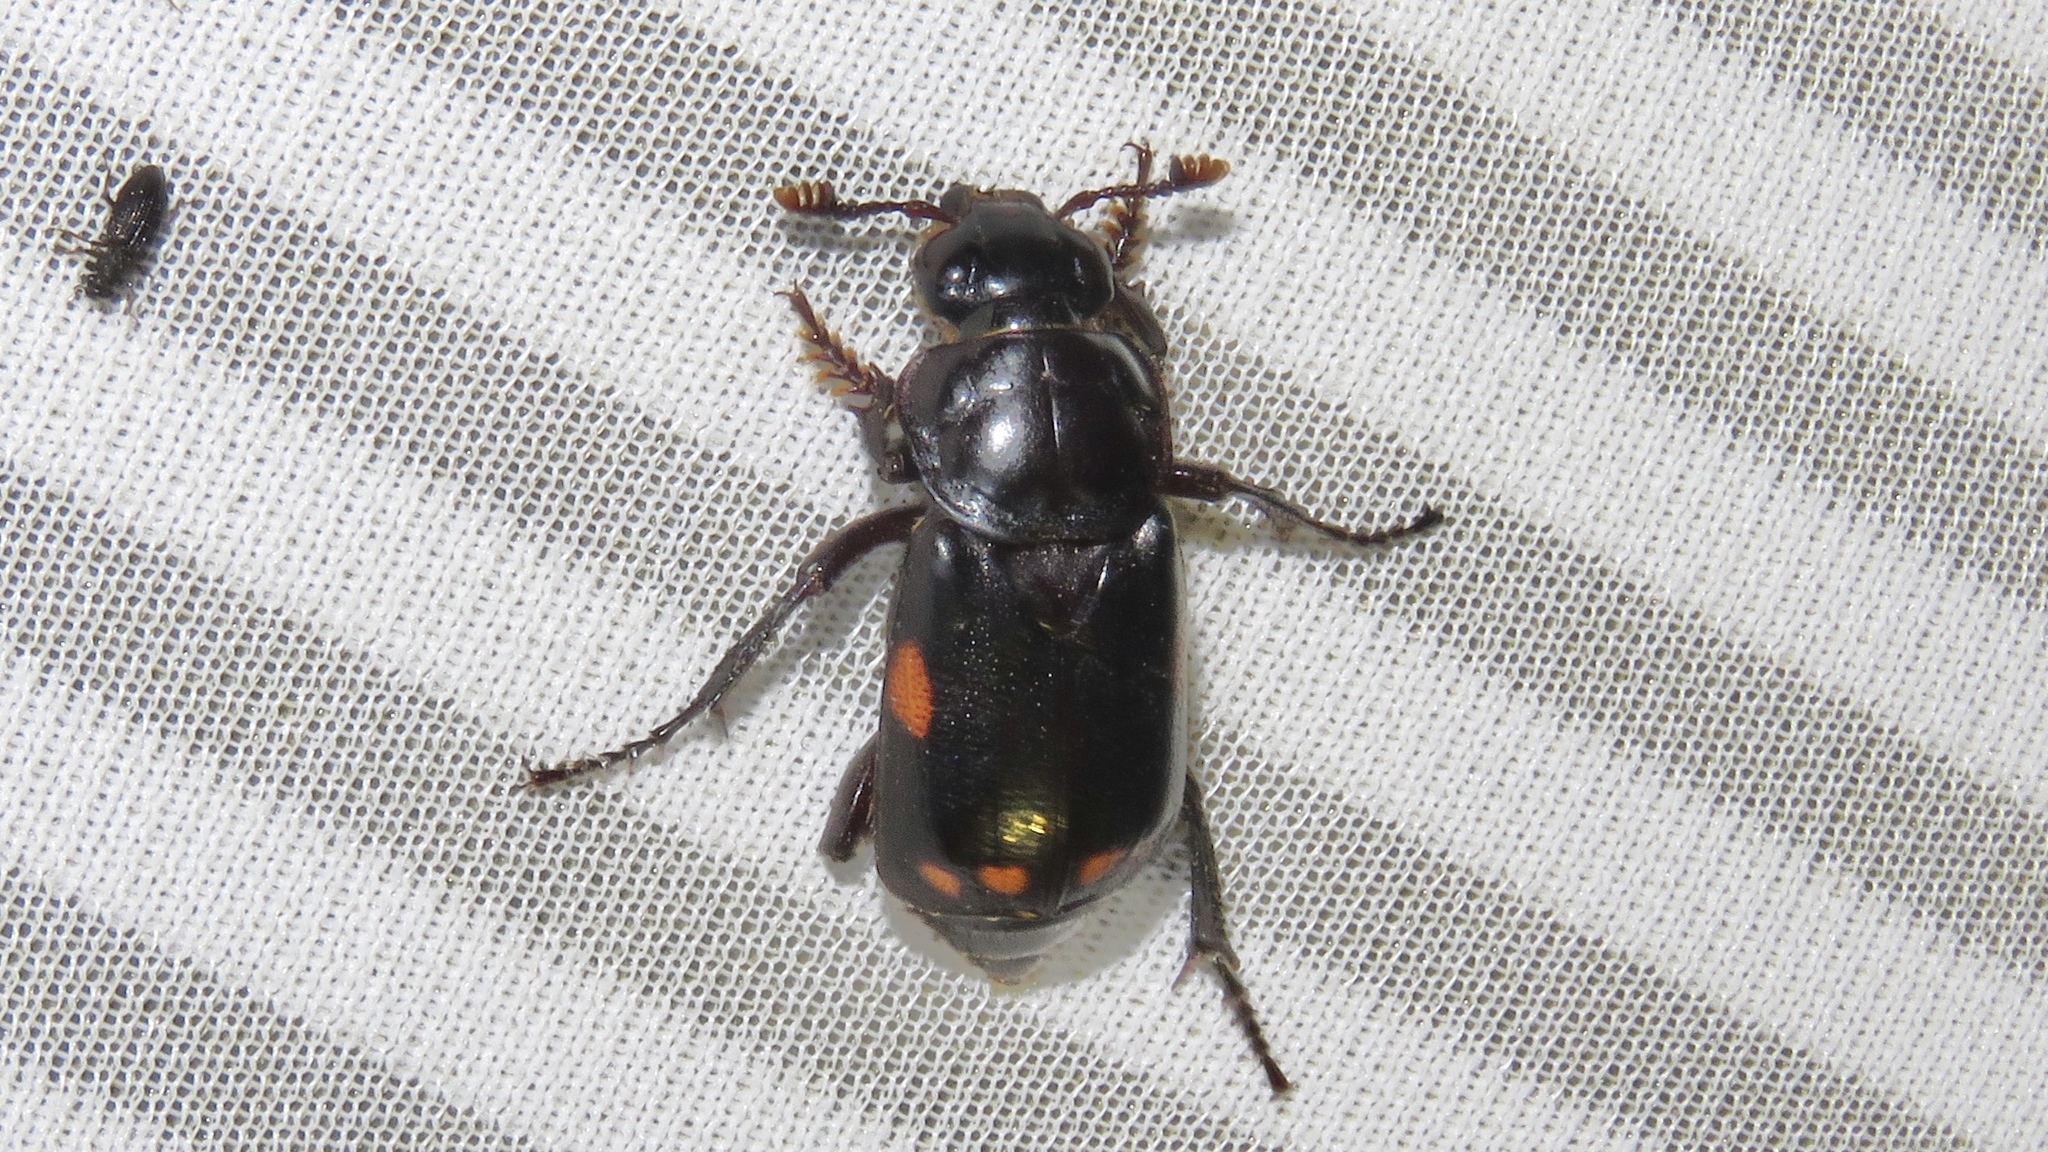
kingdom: Animalia
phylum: Arthropoda
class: Insecta
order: Coleoptera
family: Staphylinidae
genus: Nicrophorus
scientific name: Nicrophorus pustulatus
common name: Pustulated carrion beetle
